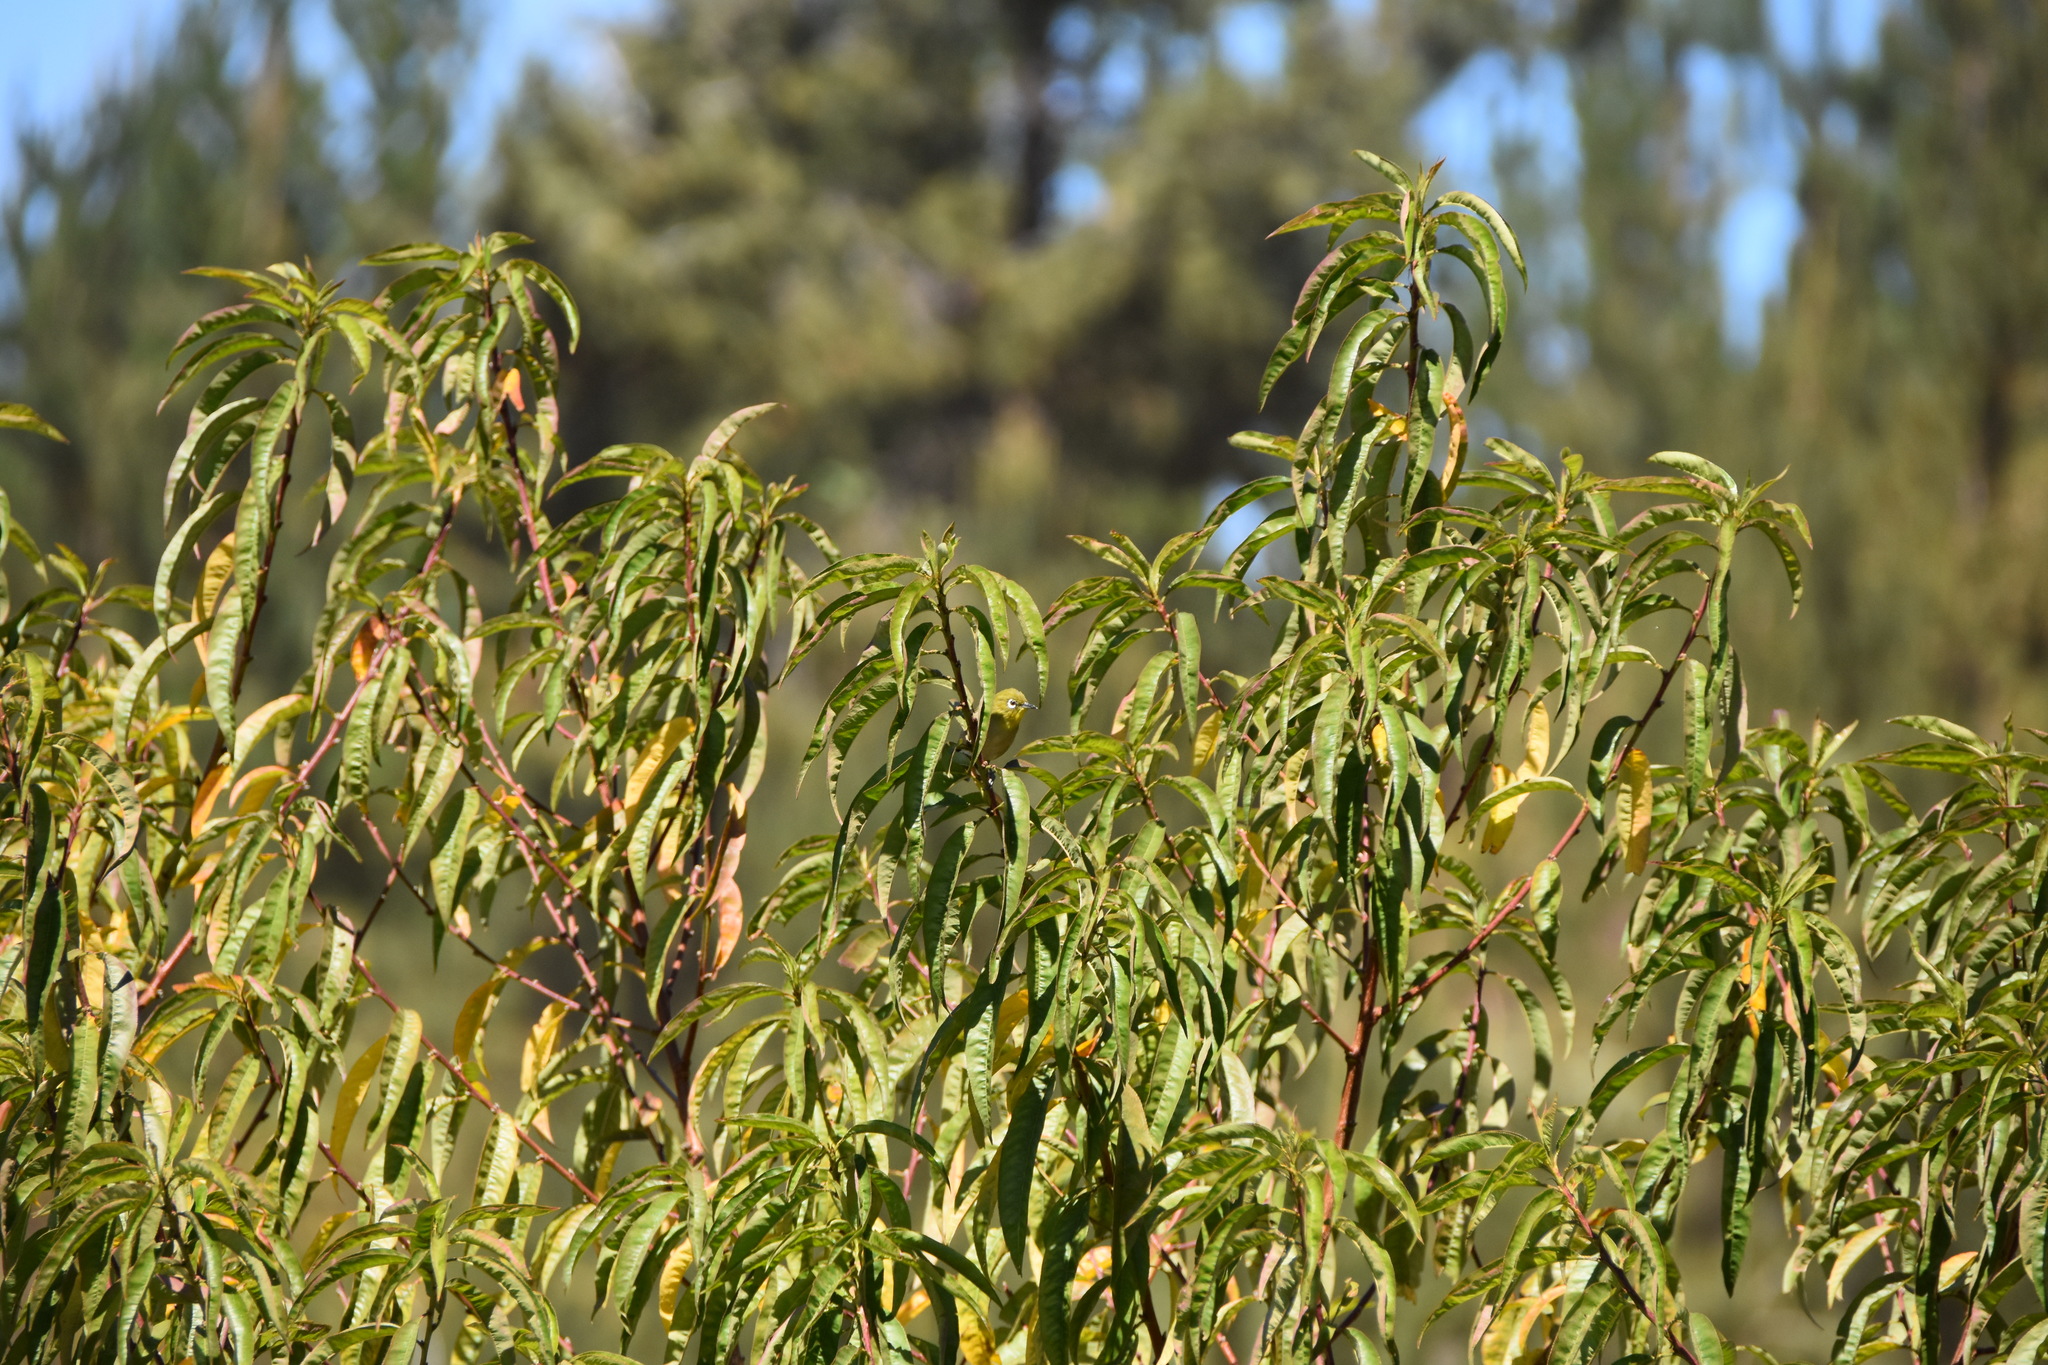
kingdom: Animalia
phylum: Chordata
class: Aves
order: Passeriformes
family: Zosteropidae
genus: Zosterops
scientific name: Zosterops japonicus
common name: Japanese white-eye
